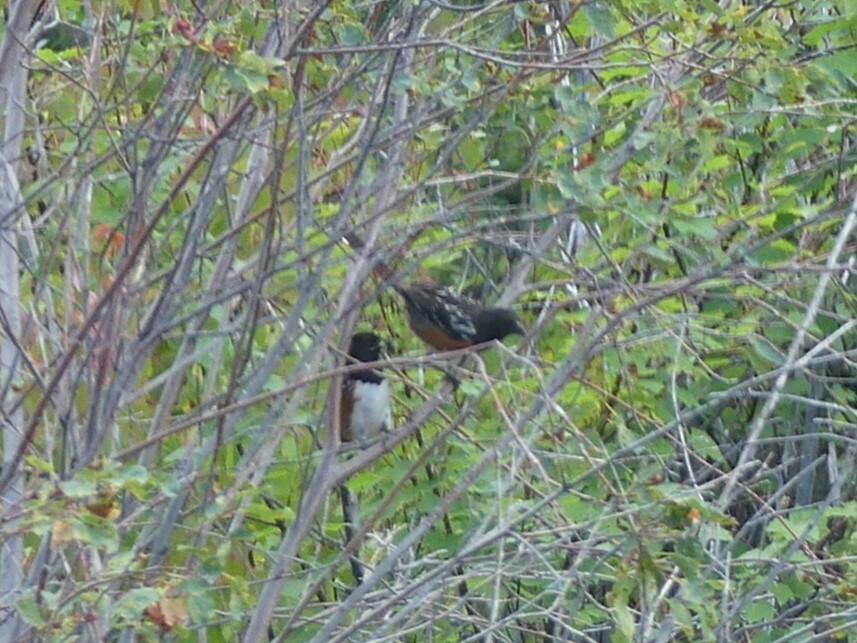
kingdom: Animalia
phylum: Chordata
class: Aves
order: Passeriformes
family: Passerellidae
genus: Pipilo
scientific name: Pipilo maculatus
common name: Spotted towhee
